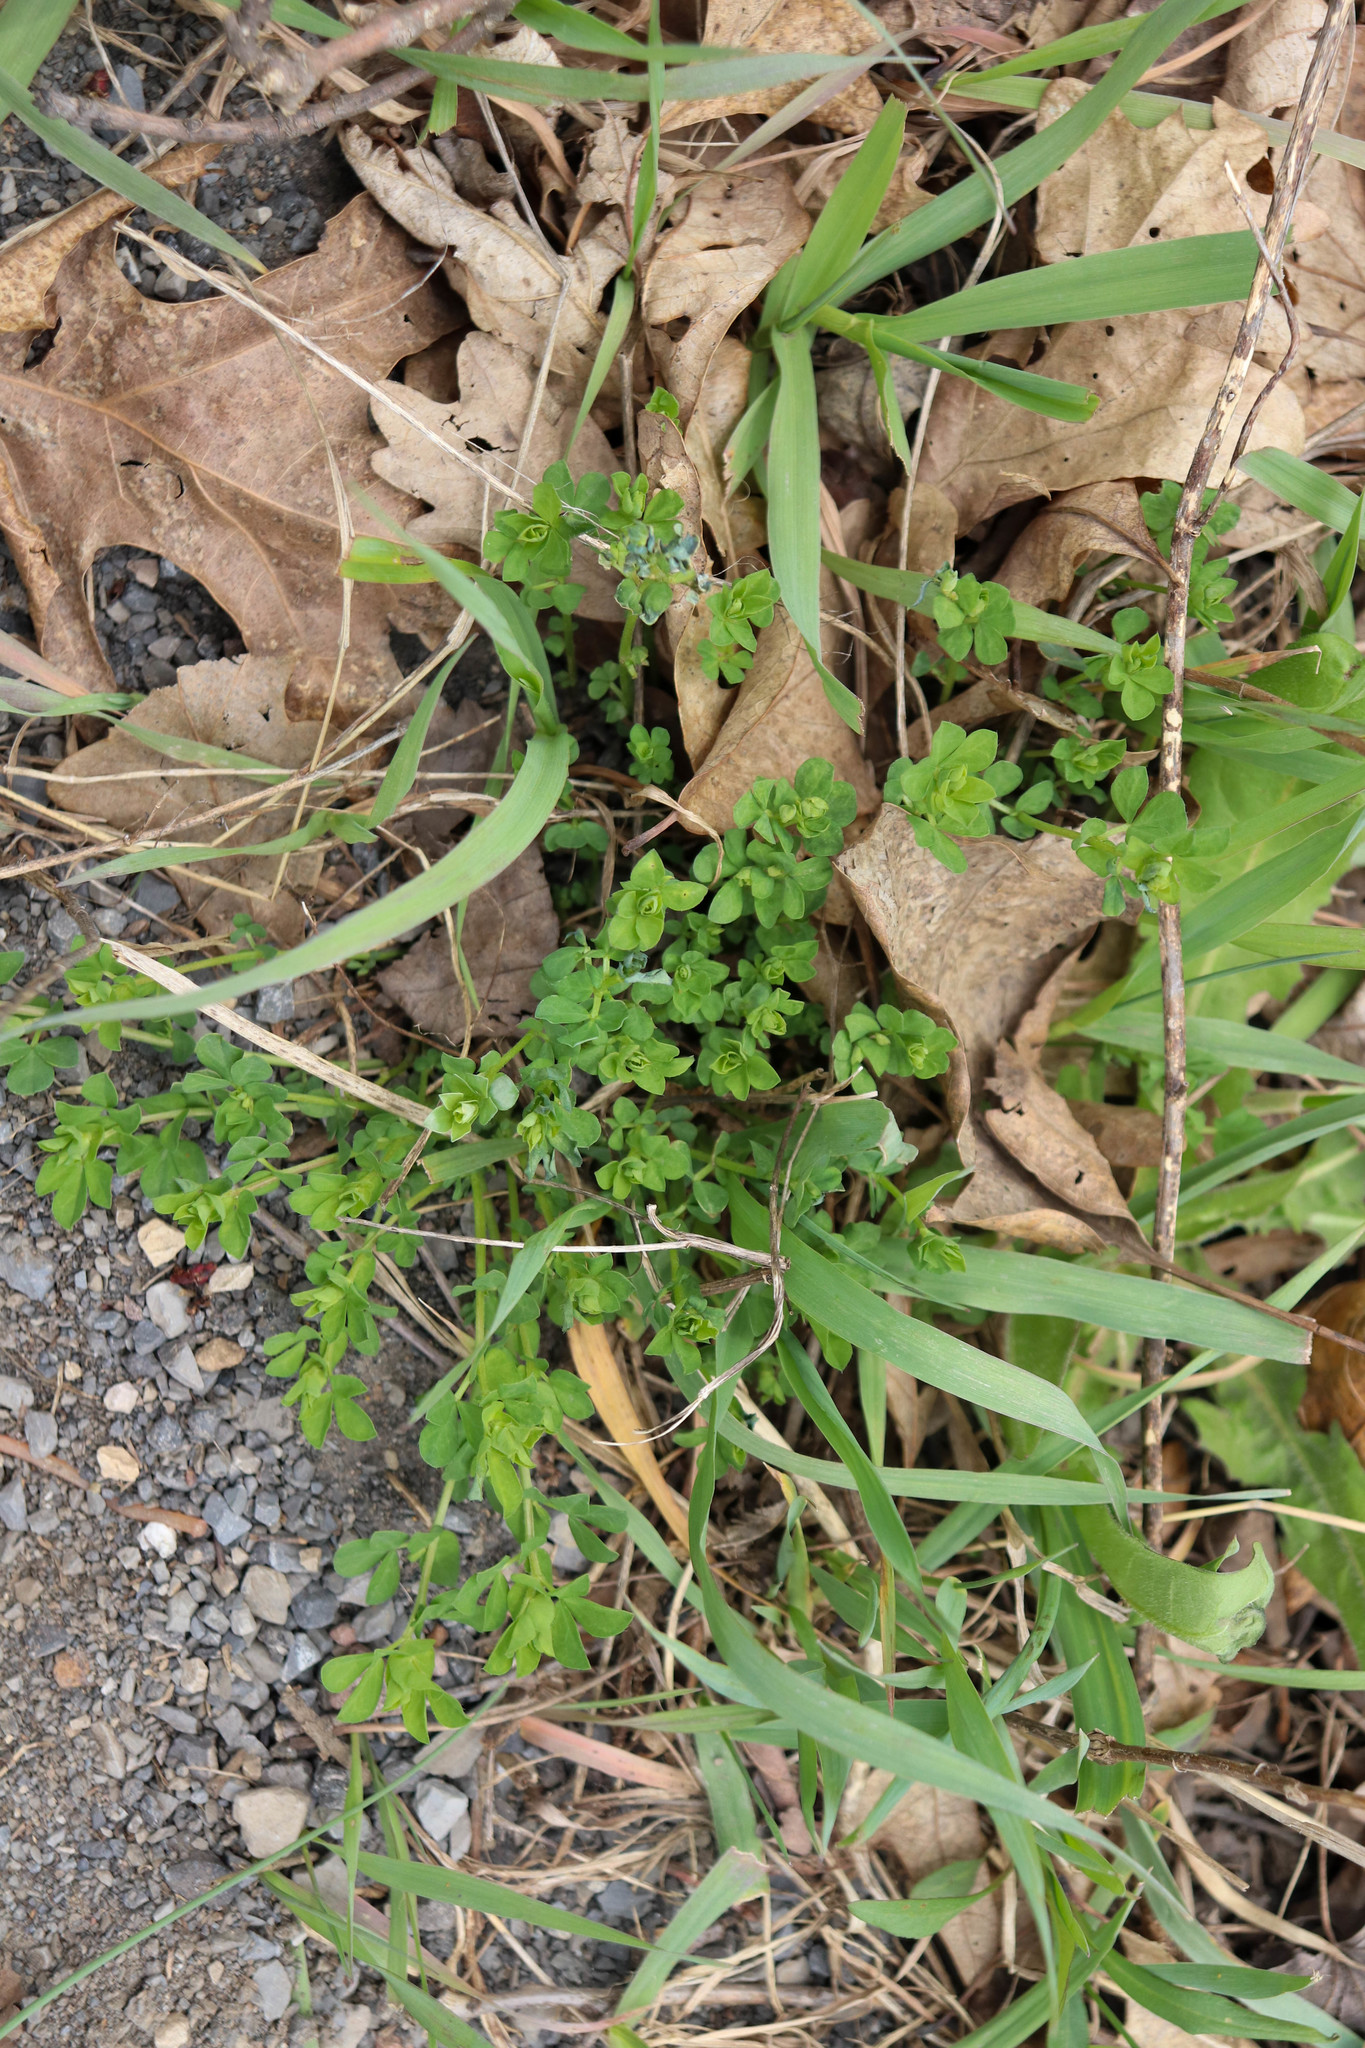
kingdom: Plantae
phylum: Tracheophyta
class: Magnoliopsida
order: Fabales
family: Fabaceae
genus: Lotus
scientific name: Lotus corniculatus
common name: Common bird's-foot-trefoil
